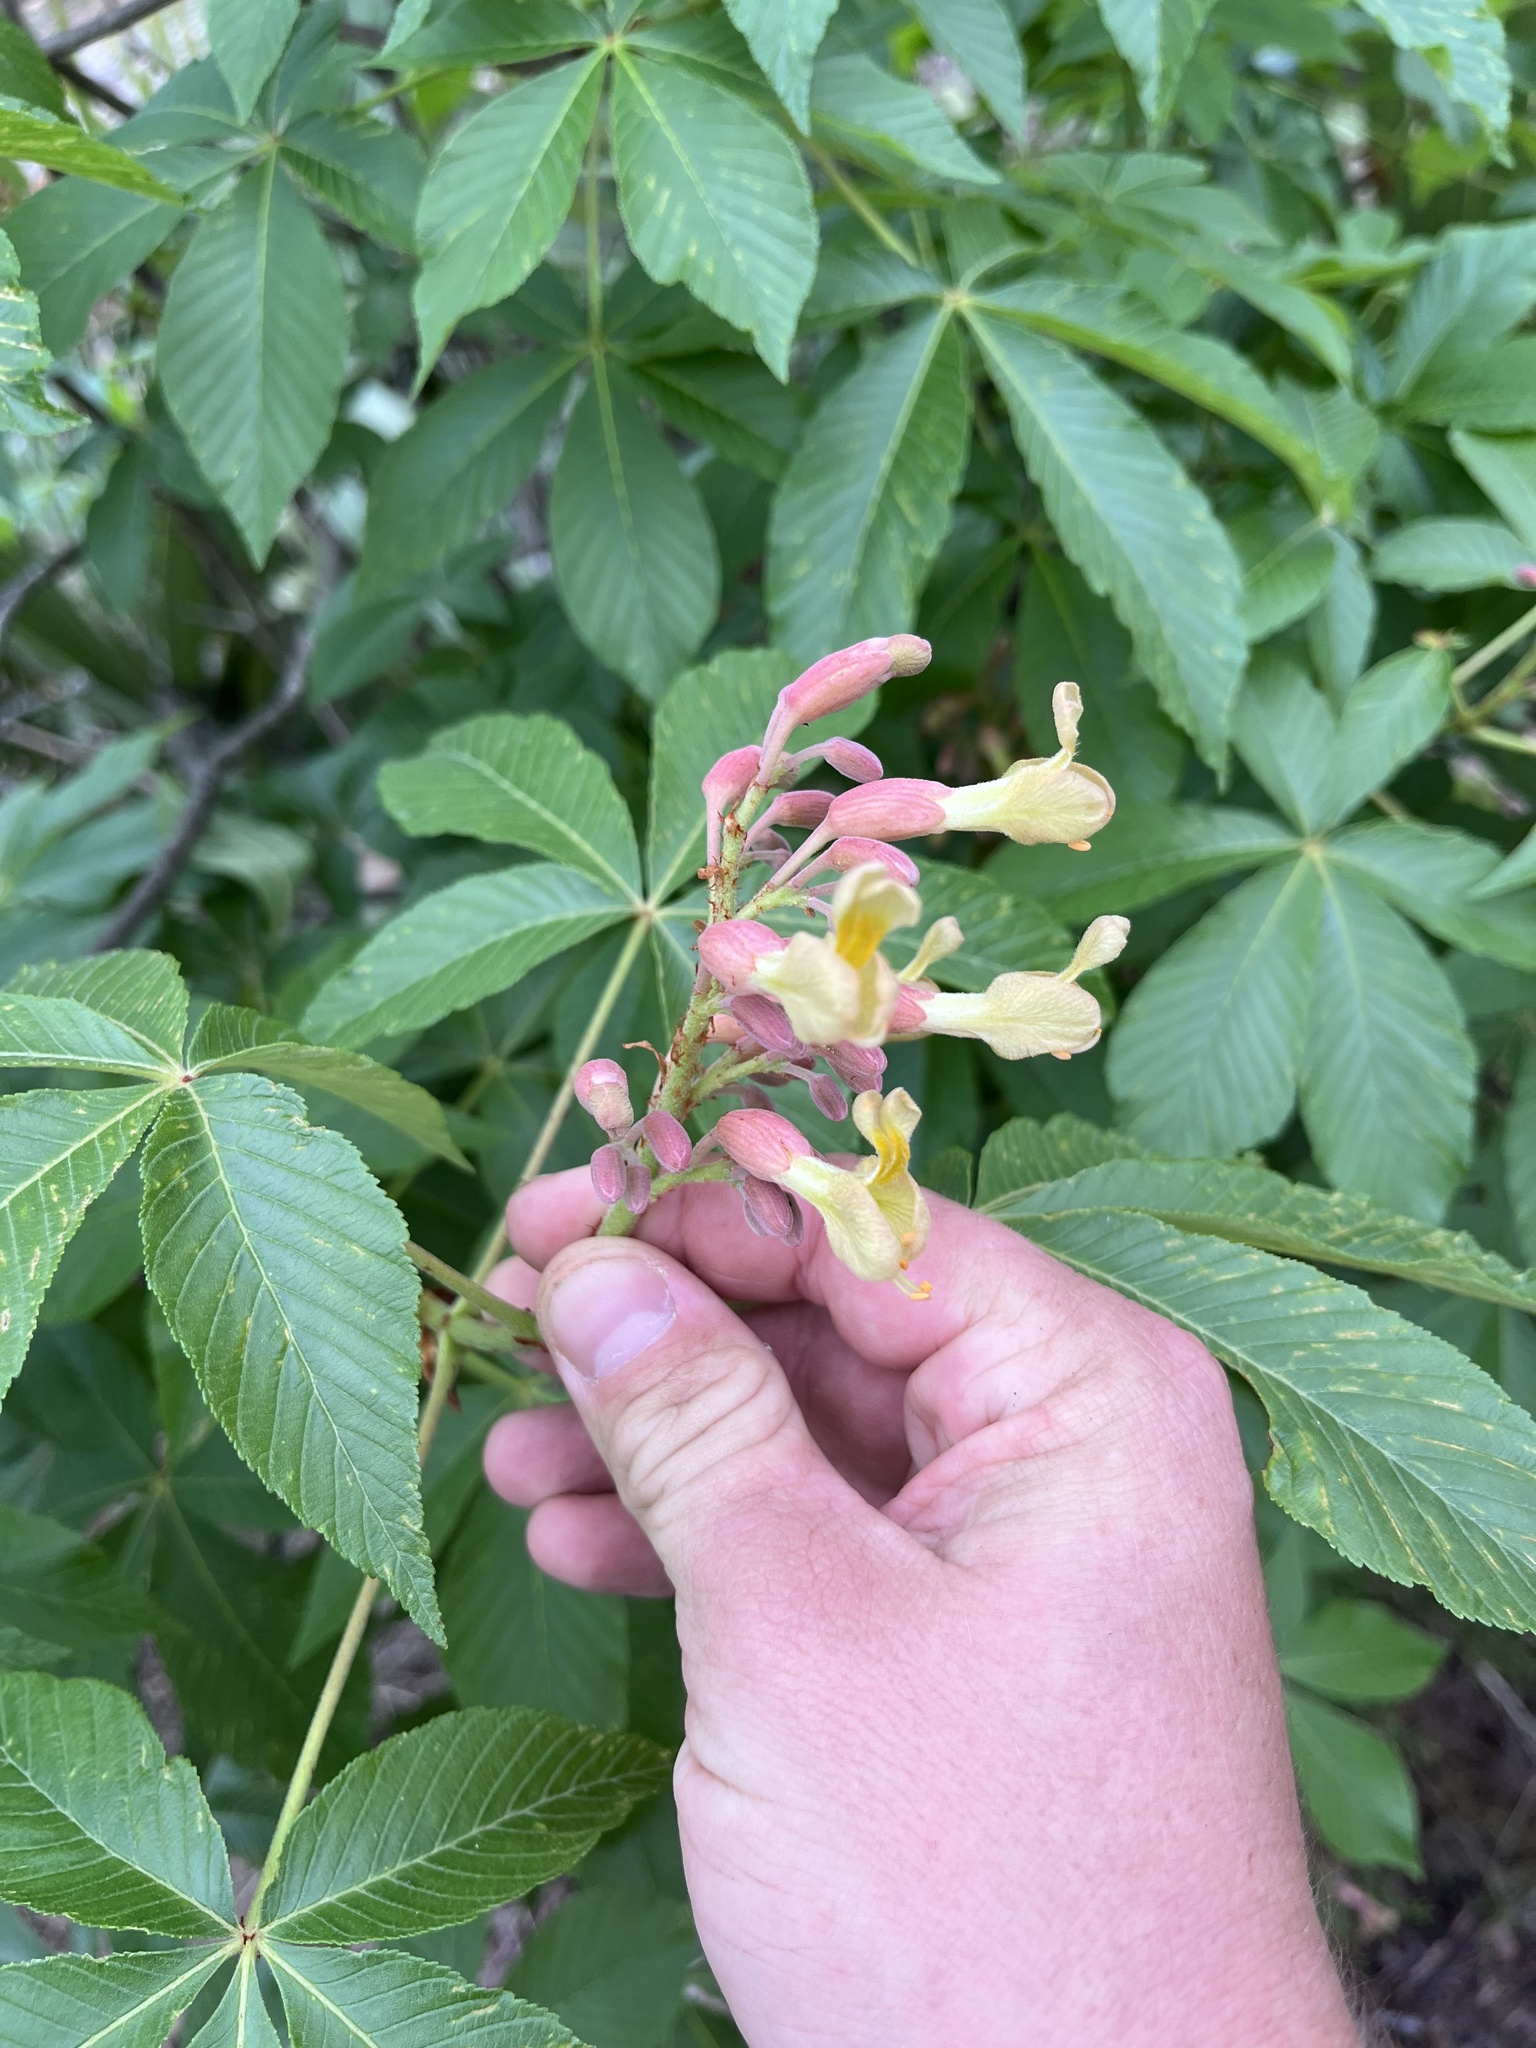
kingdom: Plantae
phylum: Tracheophyta
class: Magnoliopsida
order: Sapindales
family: Sapindaceae
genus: Aesculus
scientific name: Aesculus pavia
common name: Red buckeye
